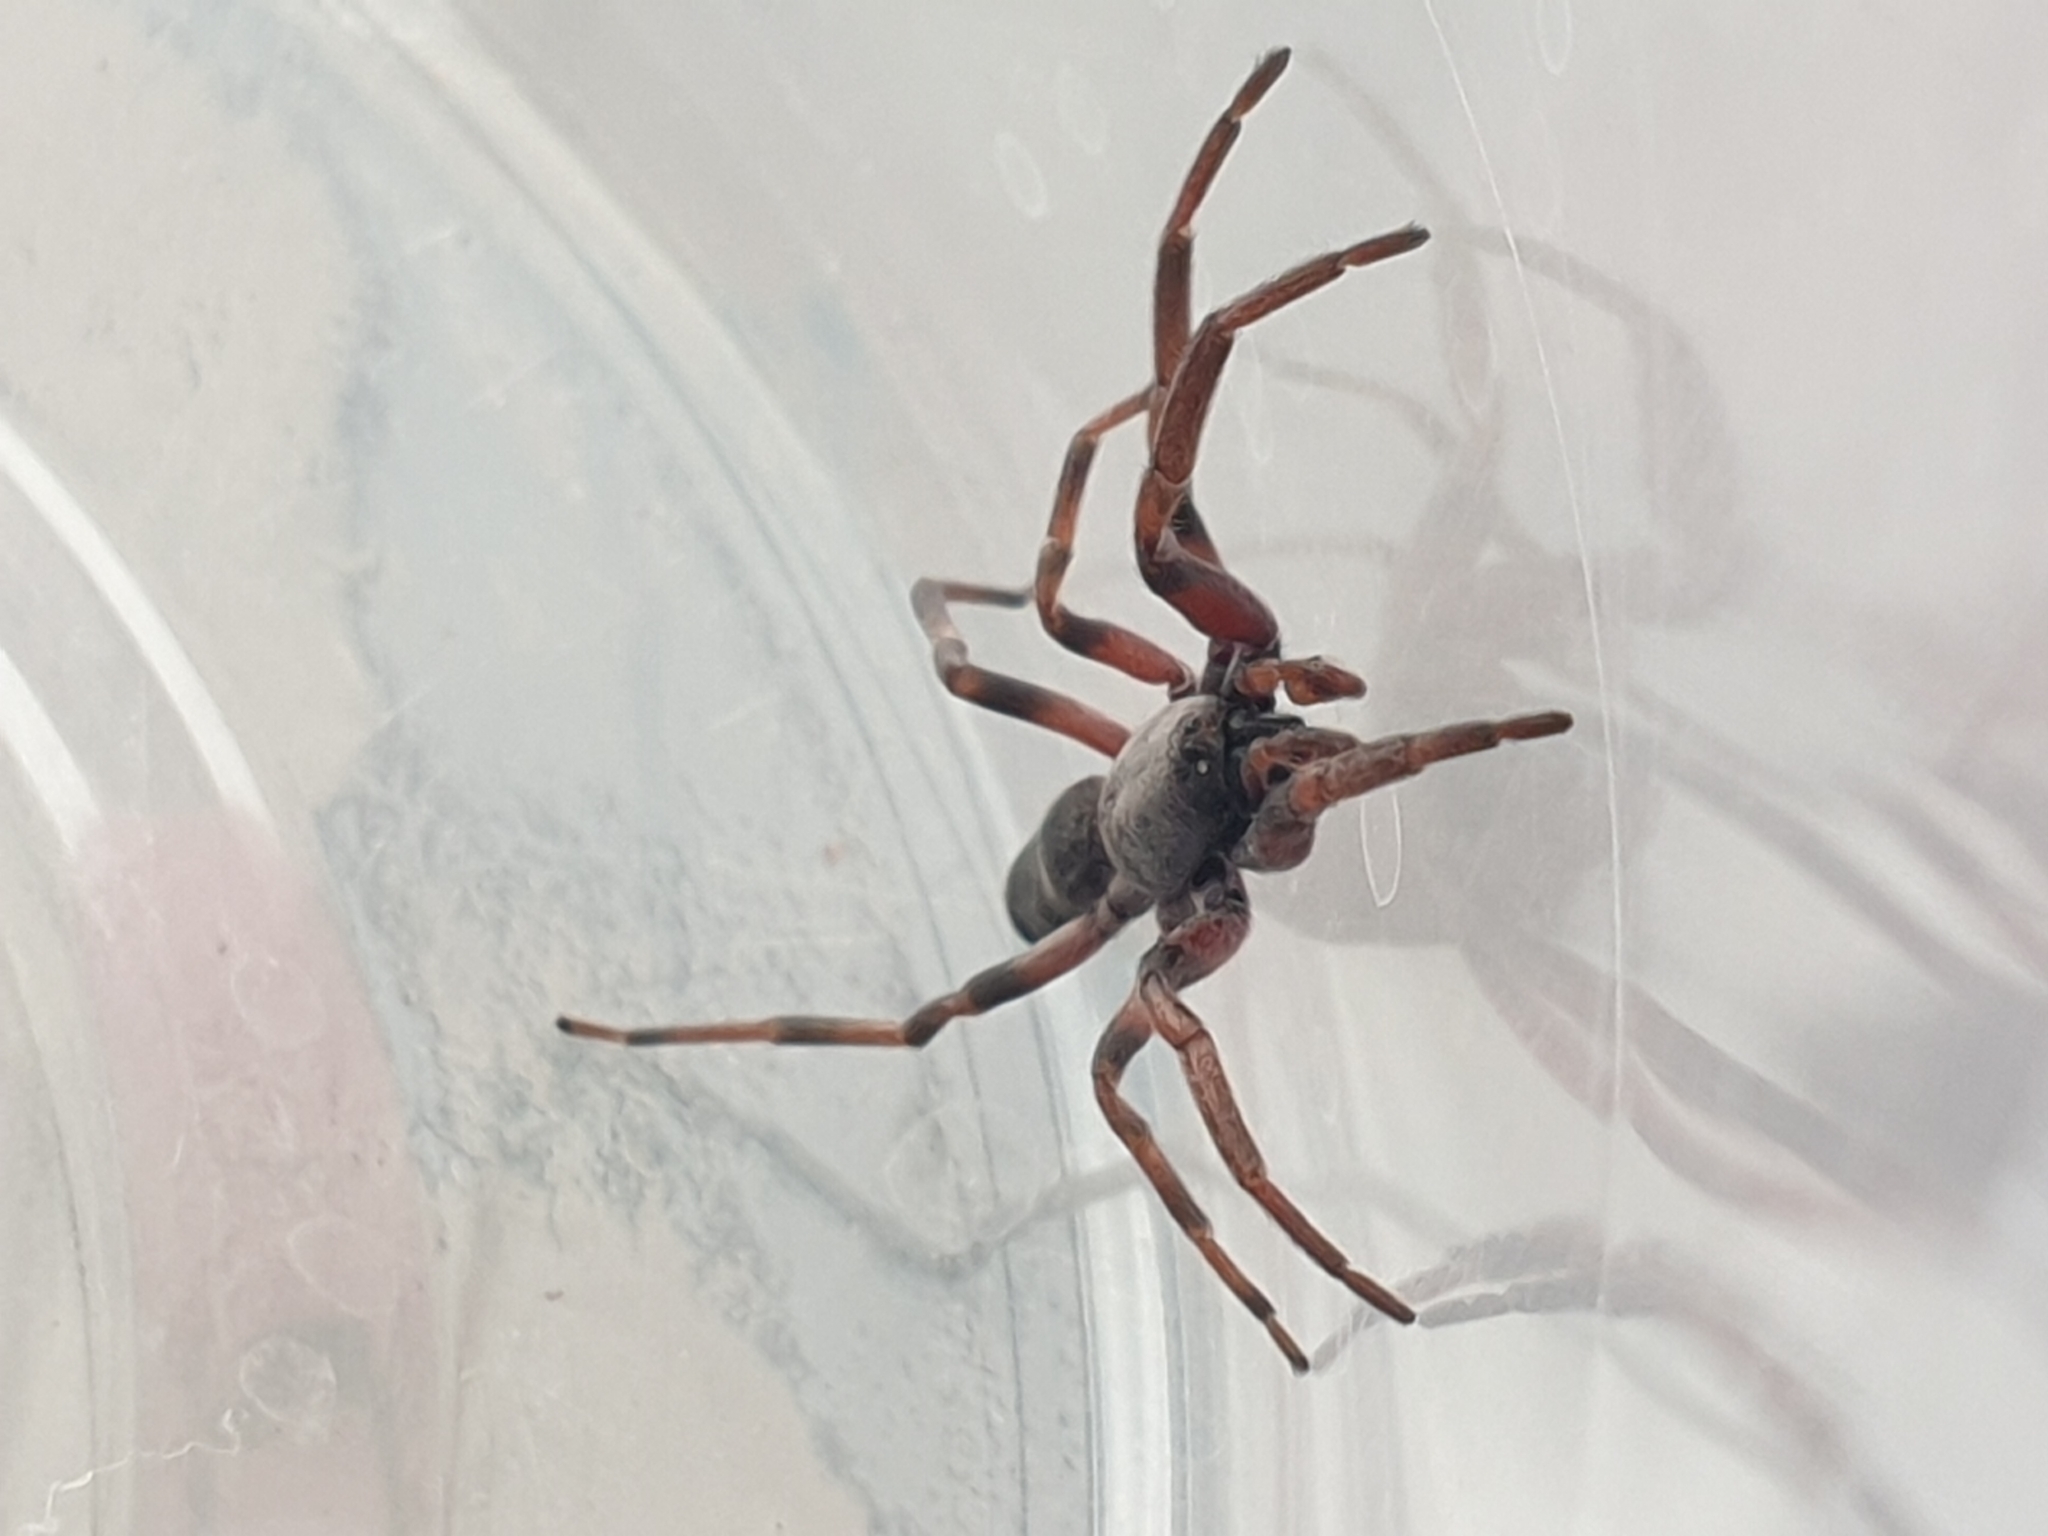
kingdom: Animalia
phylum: Arthropoda
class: Arachnida
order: Araneae
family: Lamponidae
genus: Lampona
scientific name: Lampona murina
